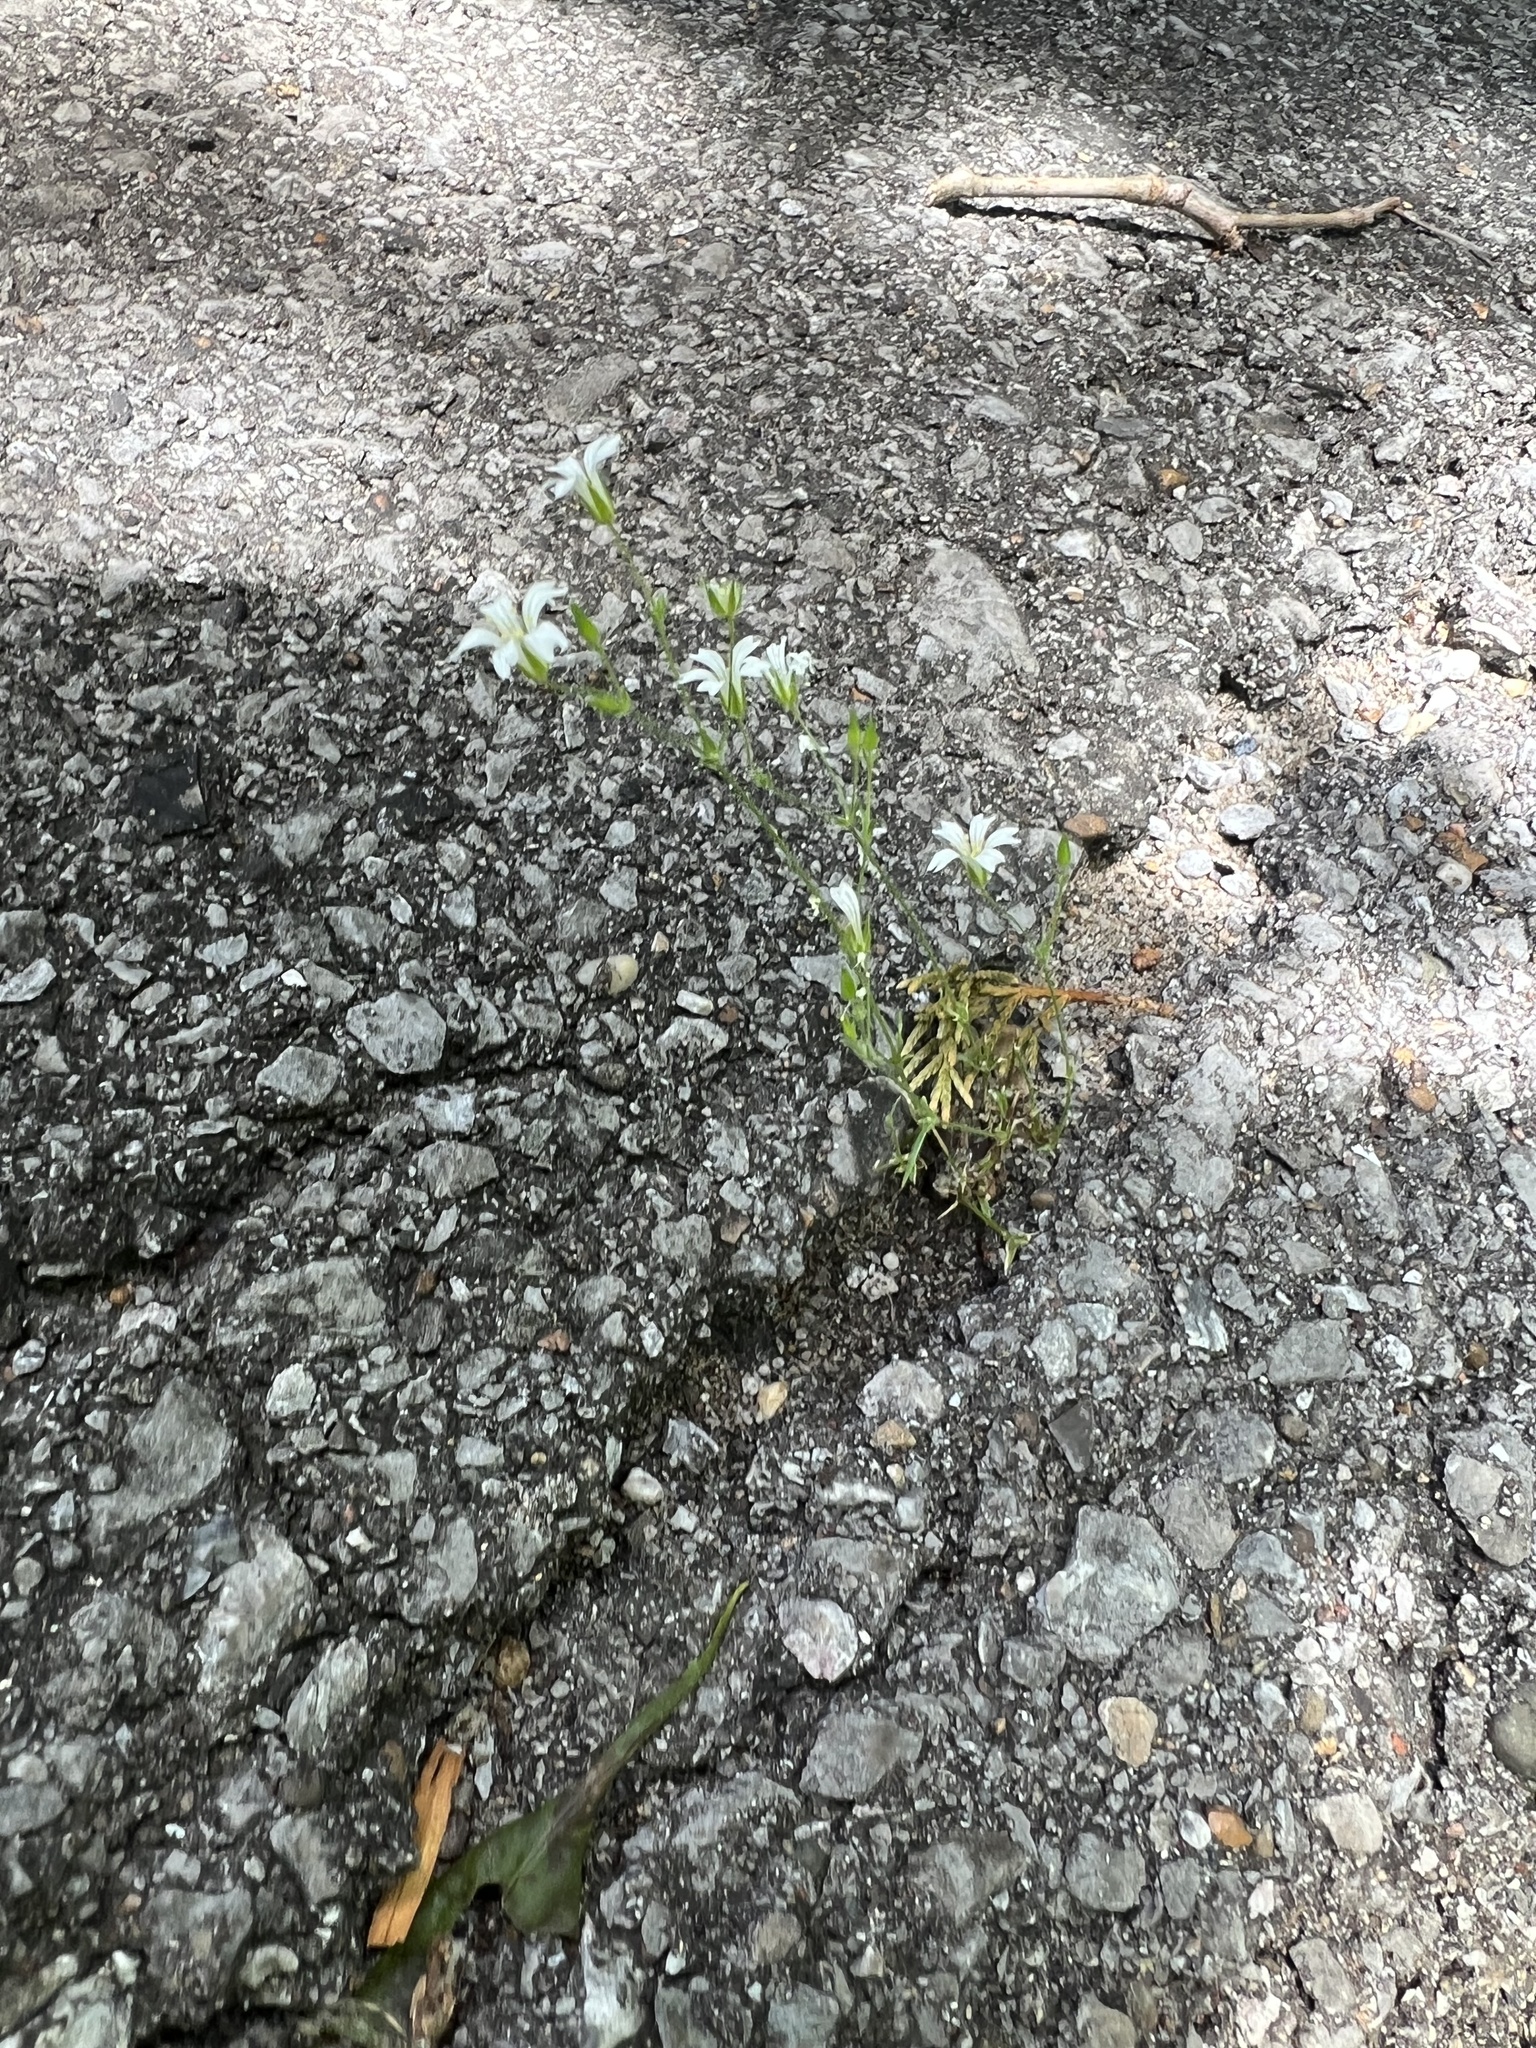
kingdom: Plantae
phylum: Tracheophyta
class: Magnoliopsida
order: Caryophyllales
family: Caryophyllaceae
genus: Mononeuria
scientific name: Mononeuria patula
